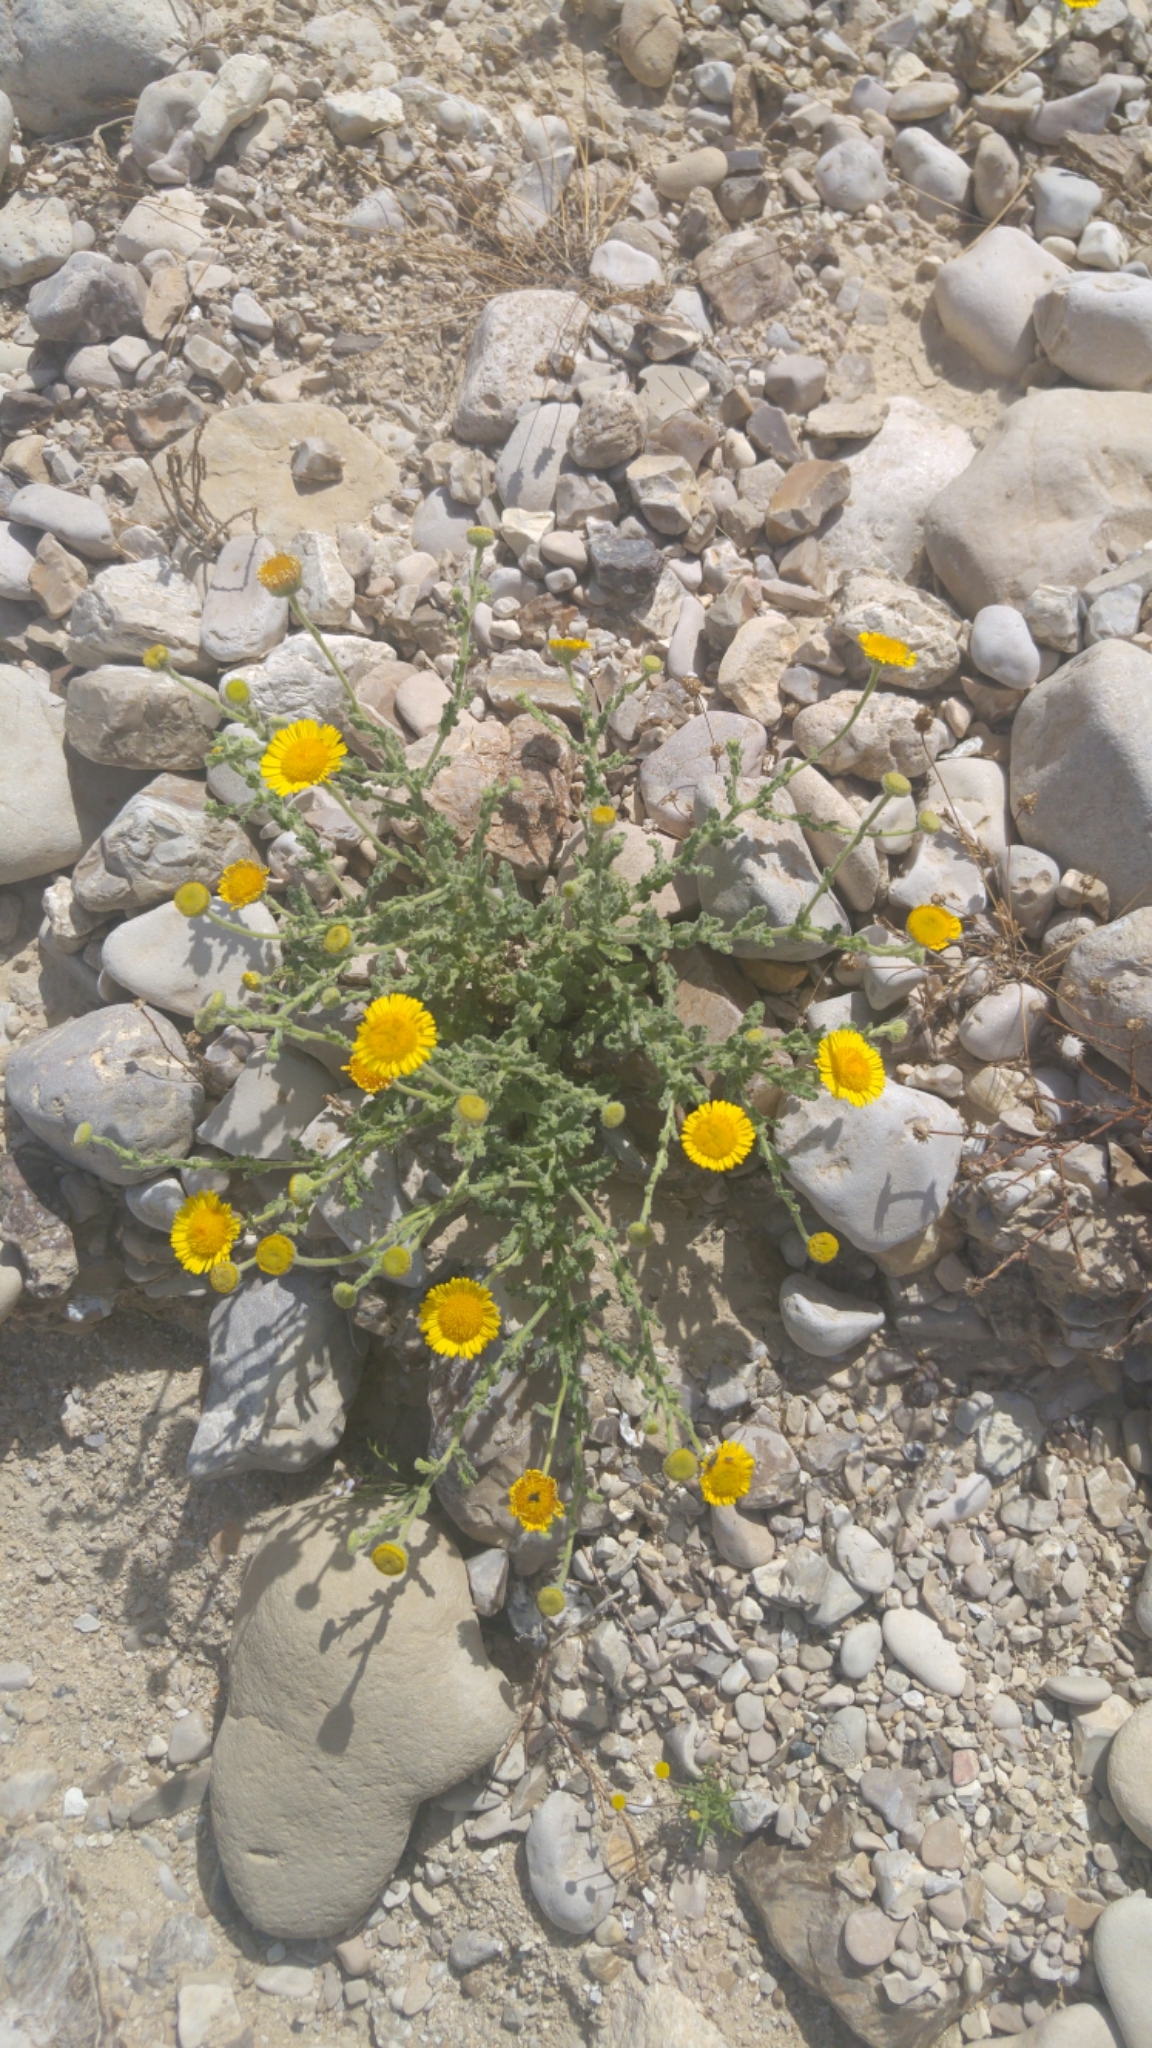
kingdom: Plantae
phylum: Tracheophyta
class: Magnoliopsida
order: Asterales
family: Asteraceae
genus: Pulicaria
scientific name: Pulicaria incisa
